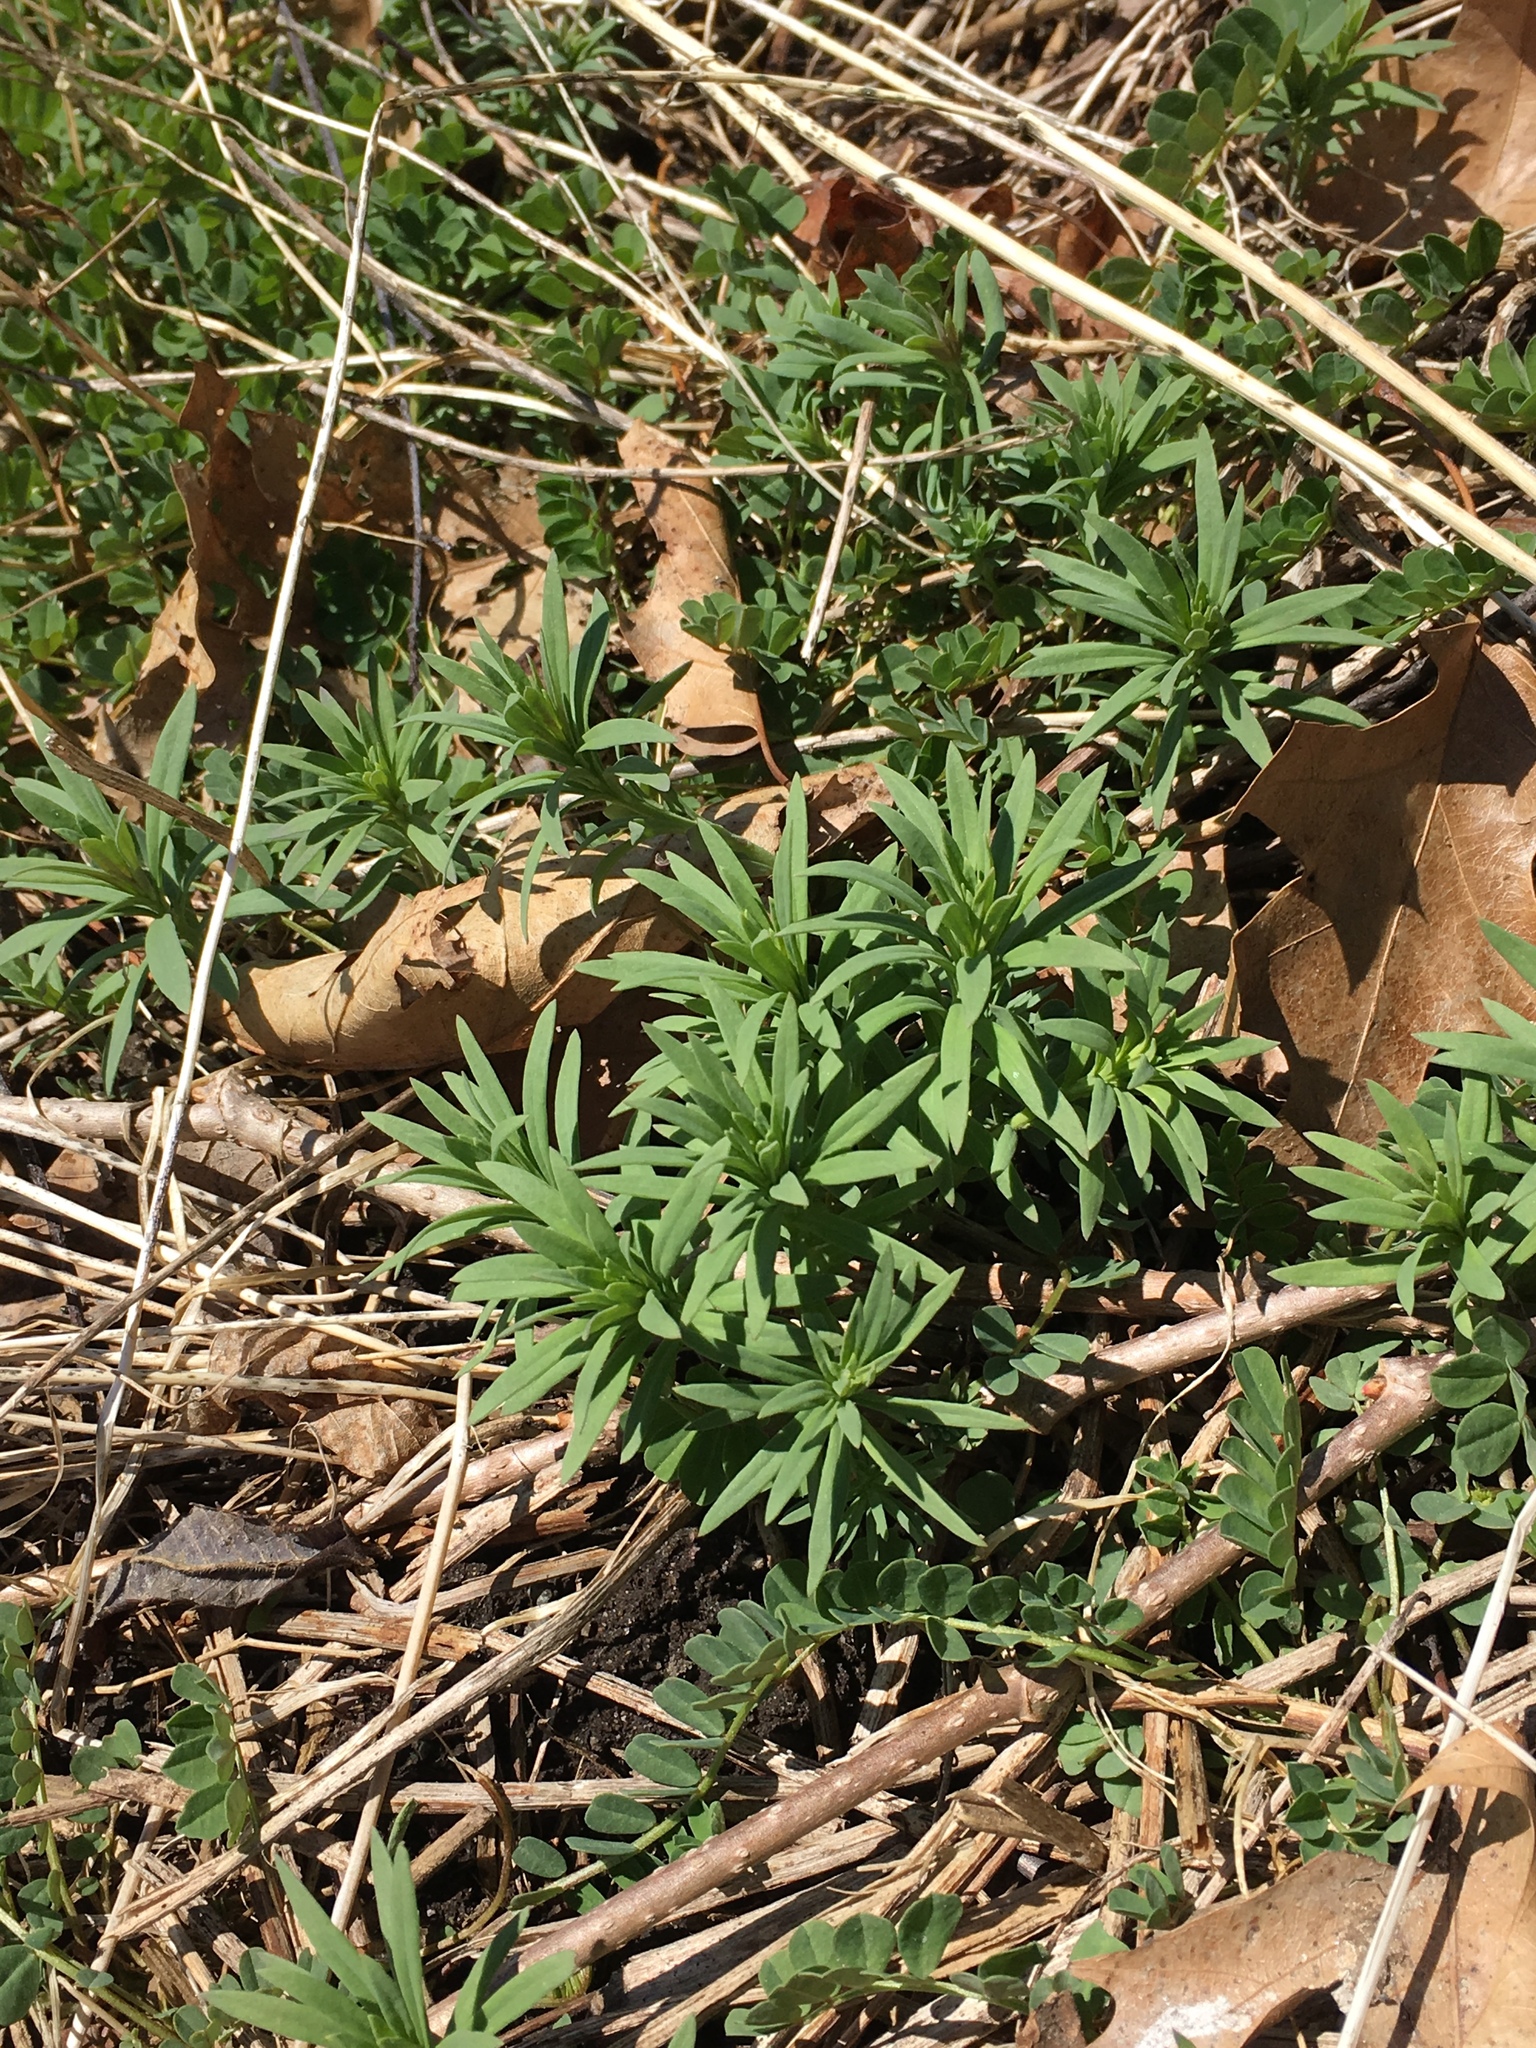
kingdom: Plantae
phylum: Tracheophyta
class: Magnoliopsida
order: Lamiales
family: Plantaginaceae
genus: Linaria
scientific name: Linaria vulgaris
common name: Butter and eggs
